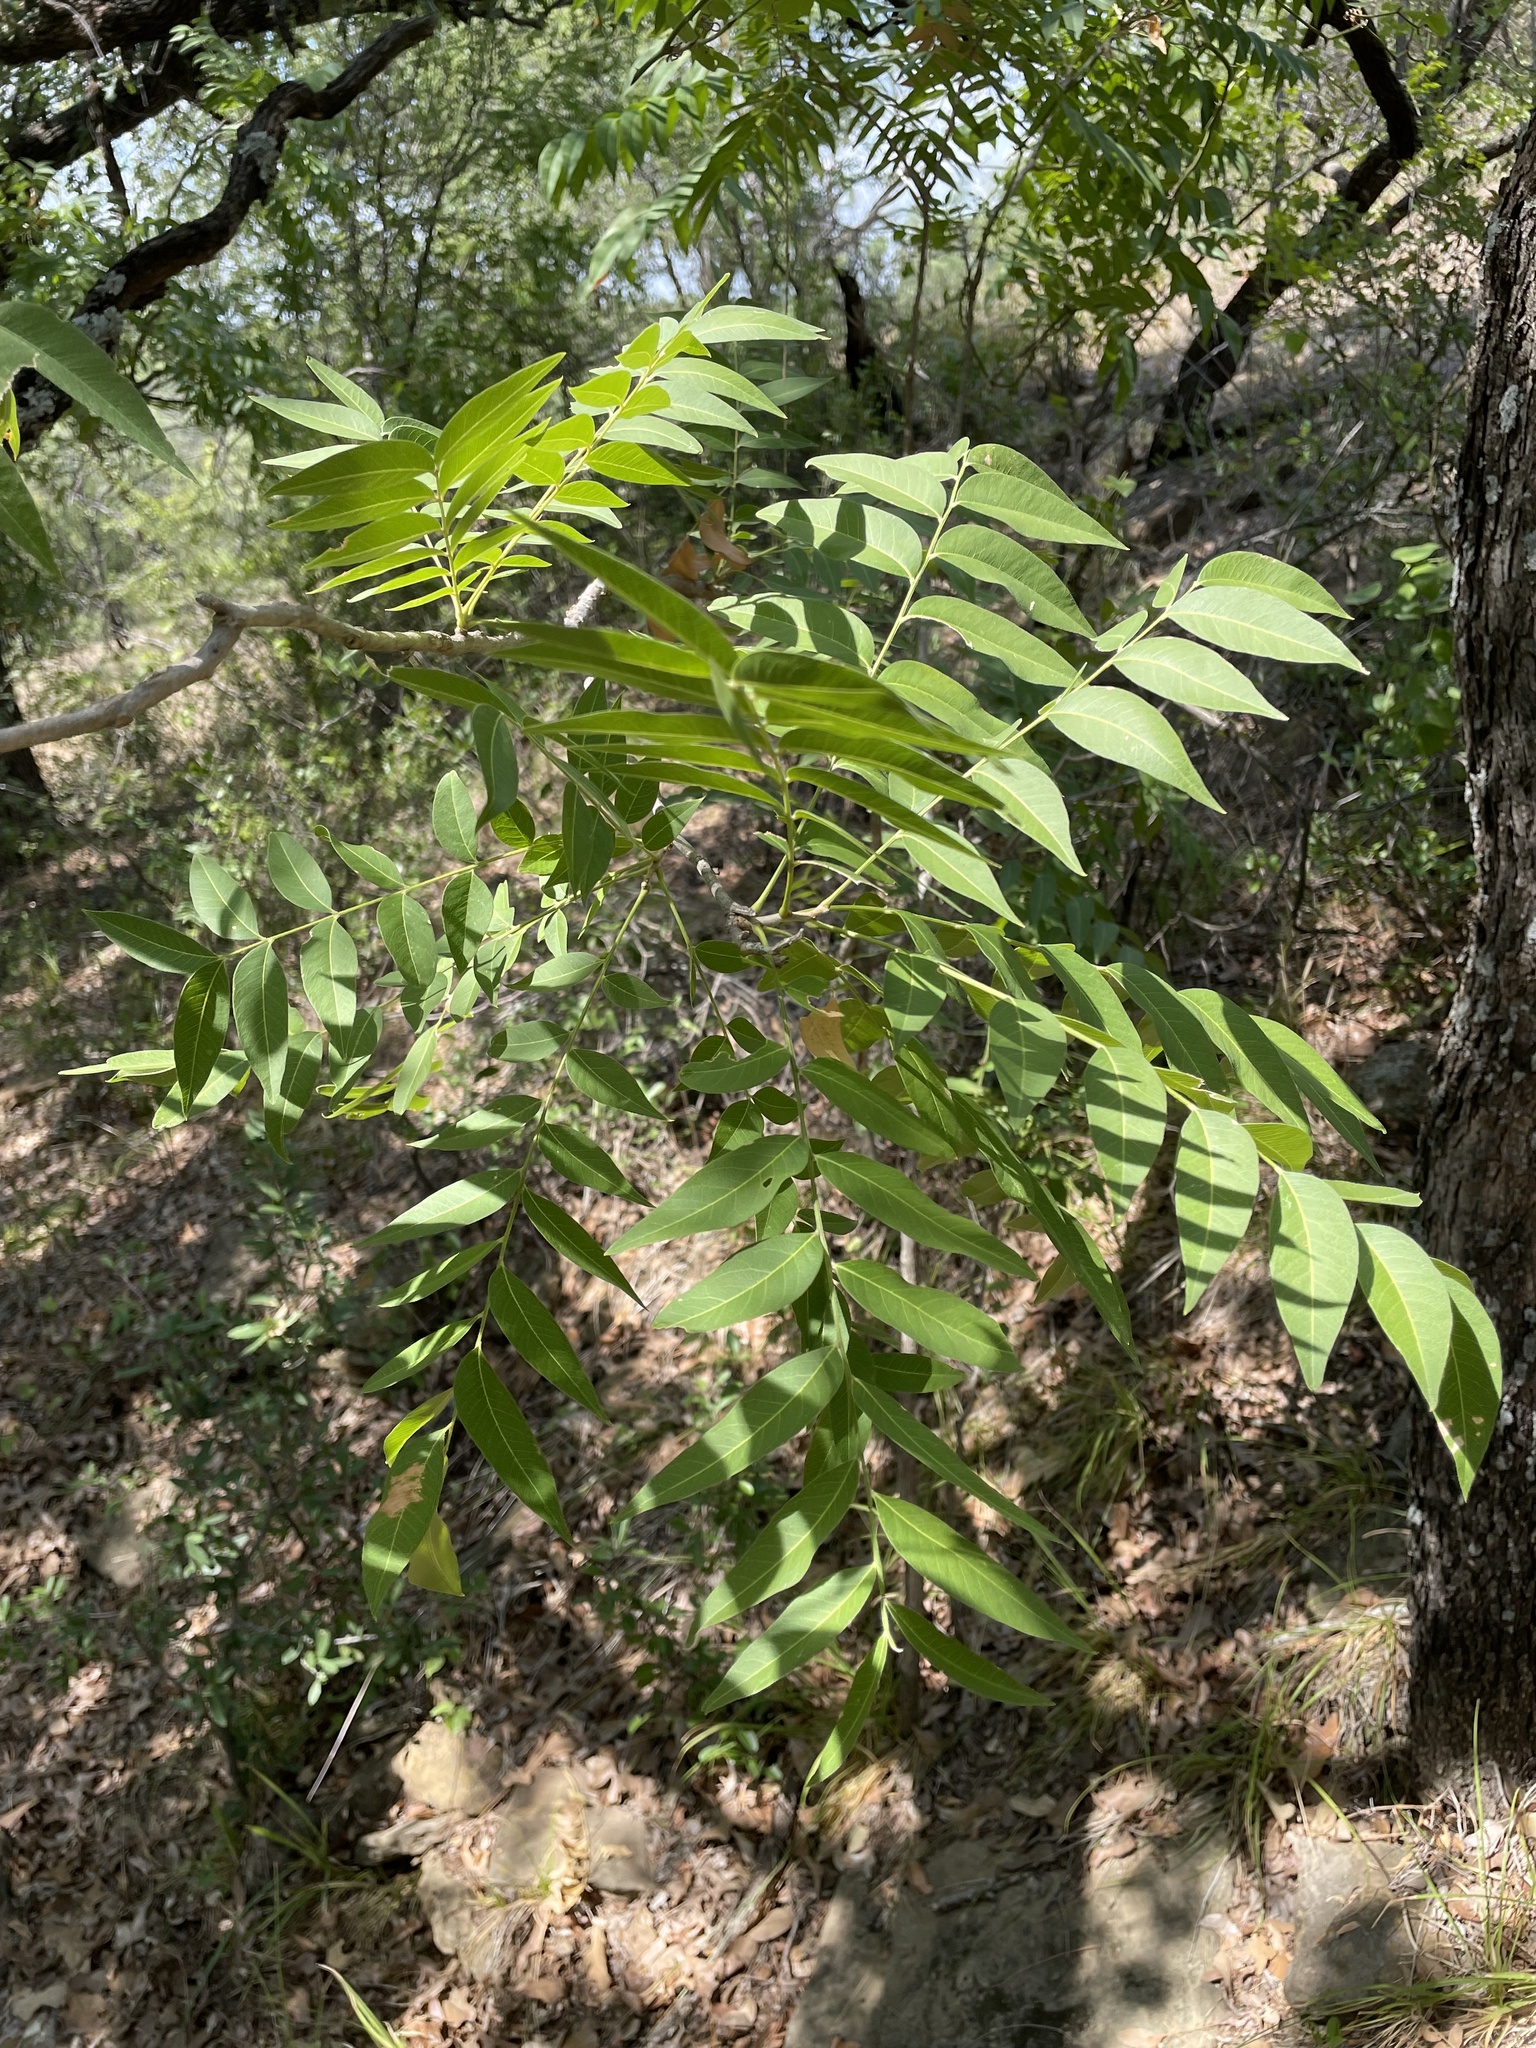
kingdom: Plantae
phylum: Tracheophyta
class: Magnoliopsida
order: Sapindales
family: Sapindaceae
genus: Sapindus
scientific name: Sapindus drummondii
